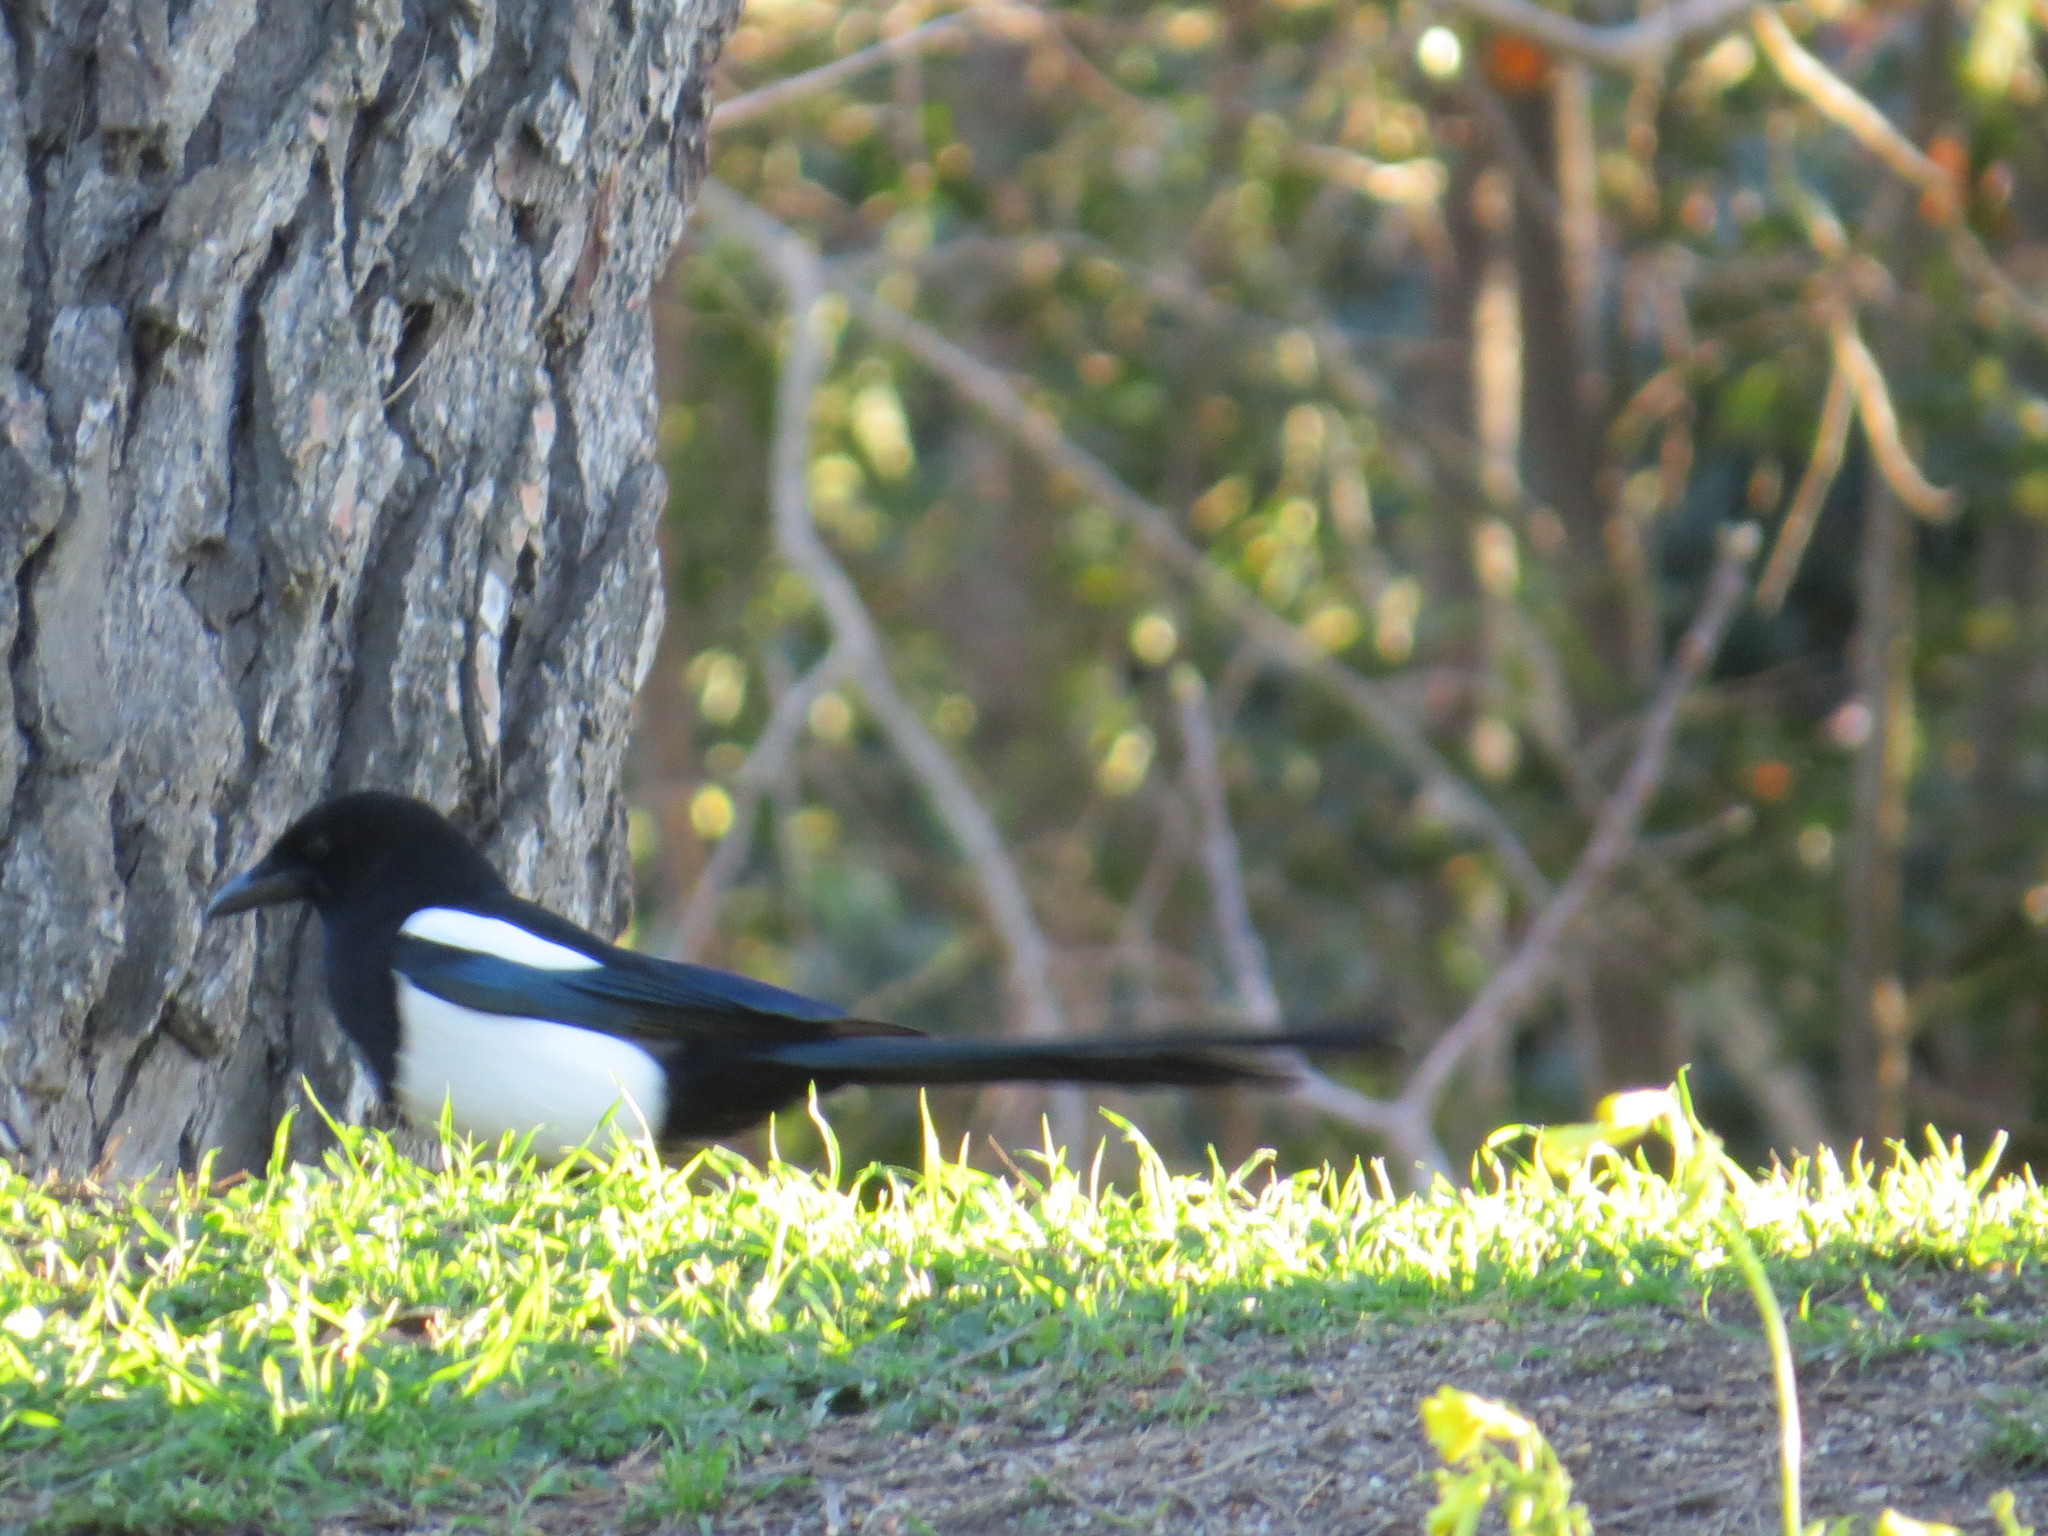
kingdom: Animalia
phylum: Chordata
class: Aves
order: Passeriformes
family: Corvidae
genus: Pica
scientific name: Pica pica
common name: Eurasian magpie
